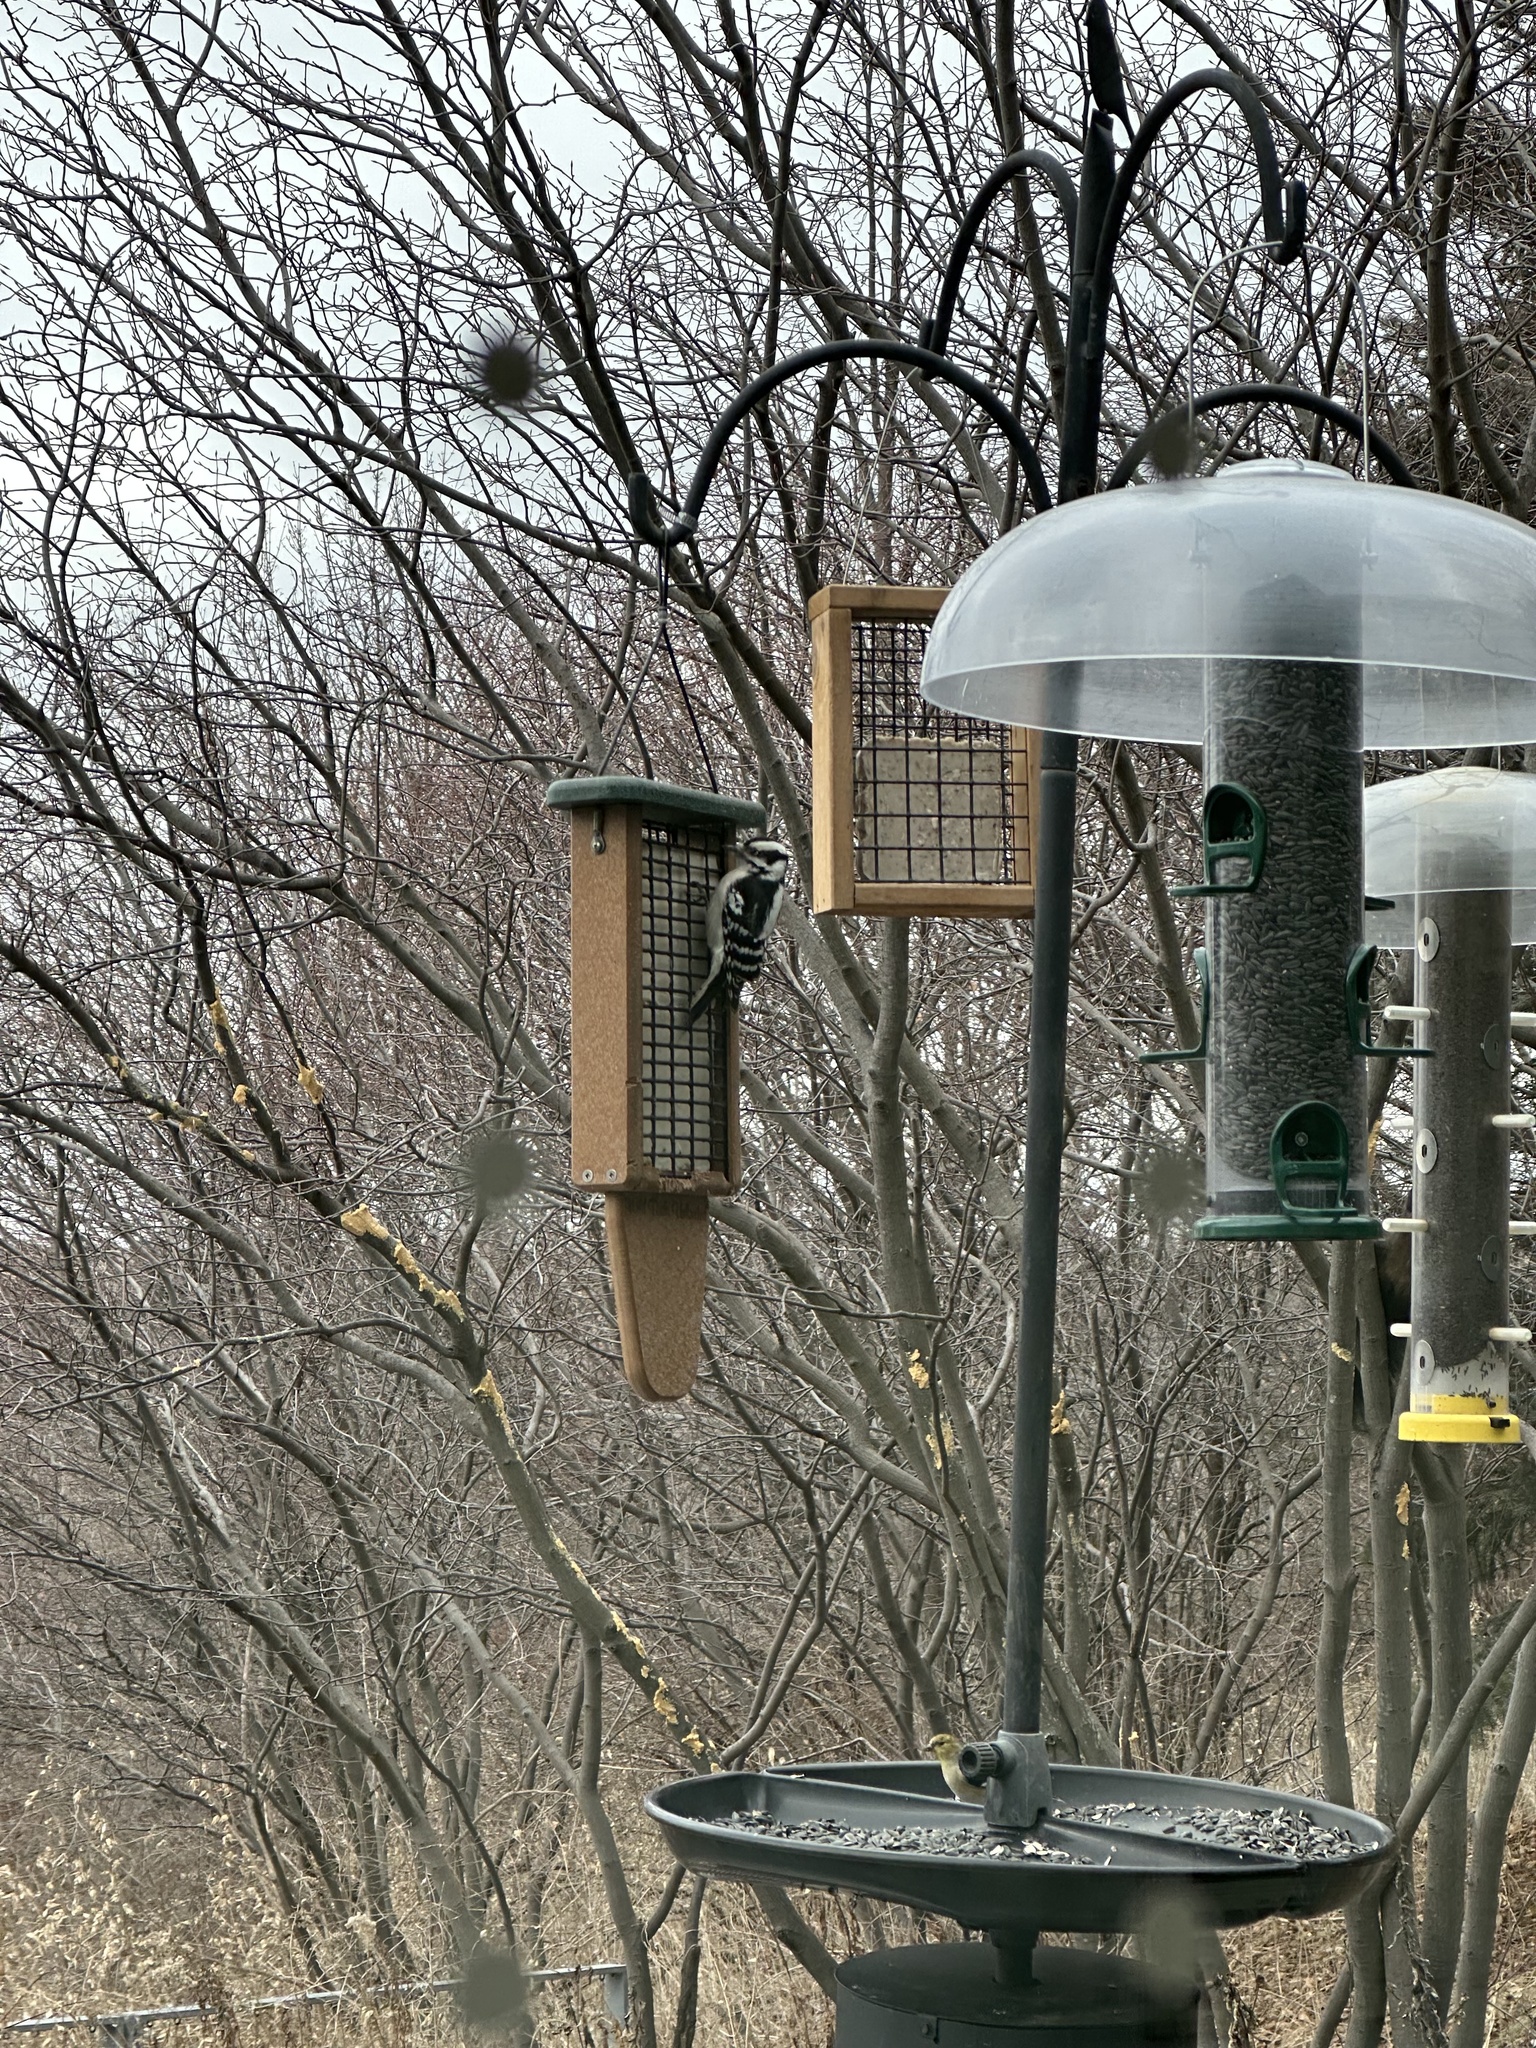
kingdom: Animalia
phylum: Chordata
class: Aves
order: Piciformes
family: Picidae
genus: Dryobates
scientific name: Dryobates pubescens
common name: Downy woodpecker
